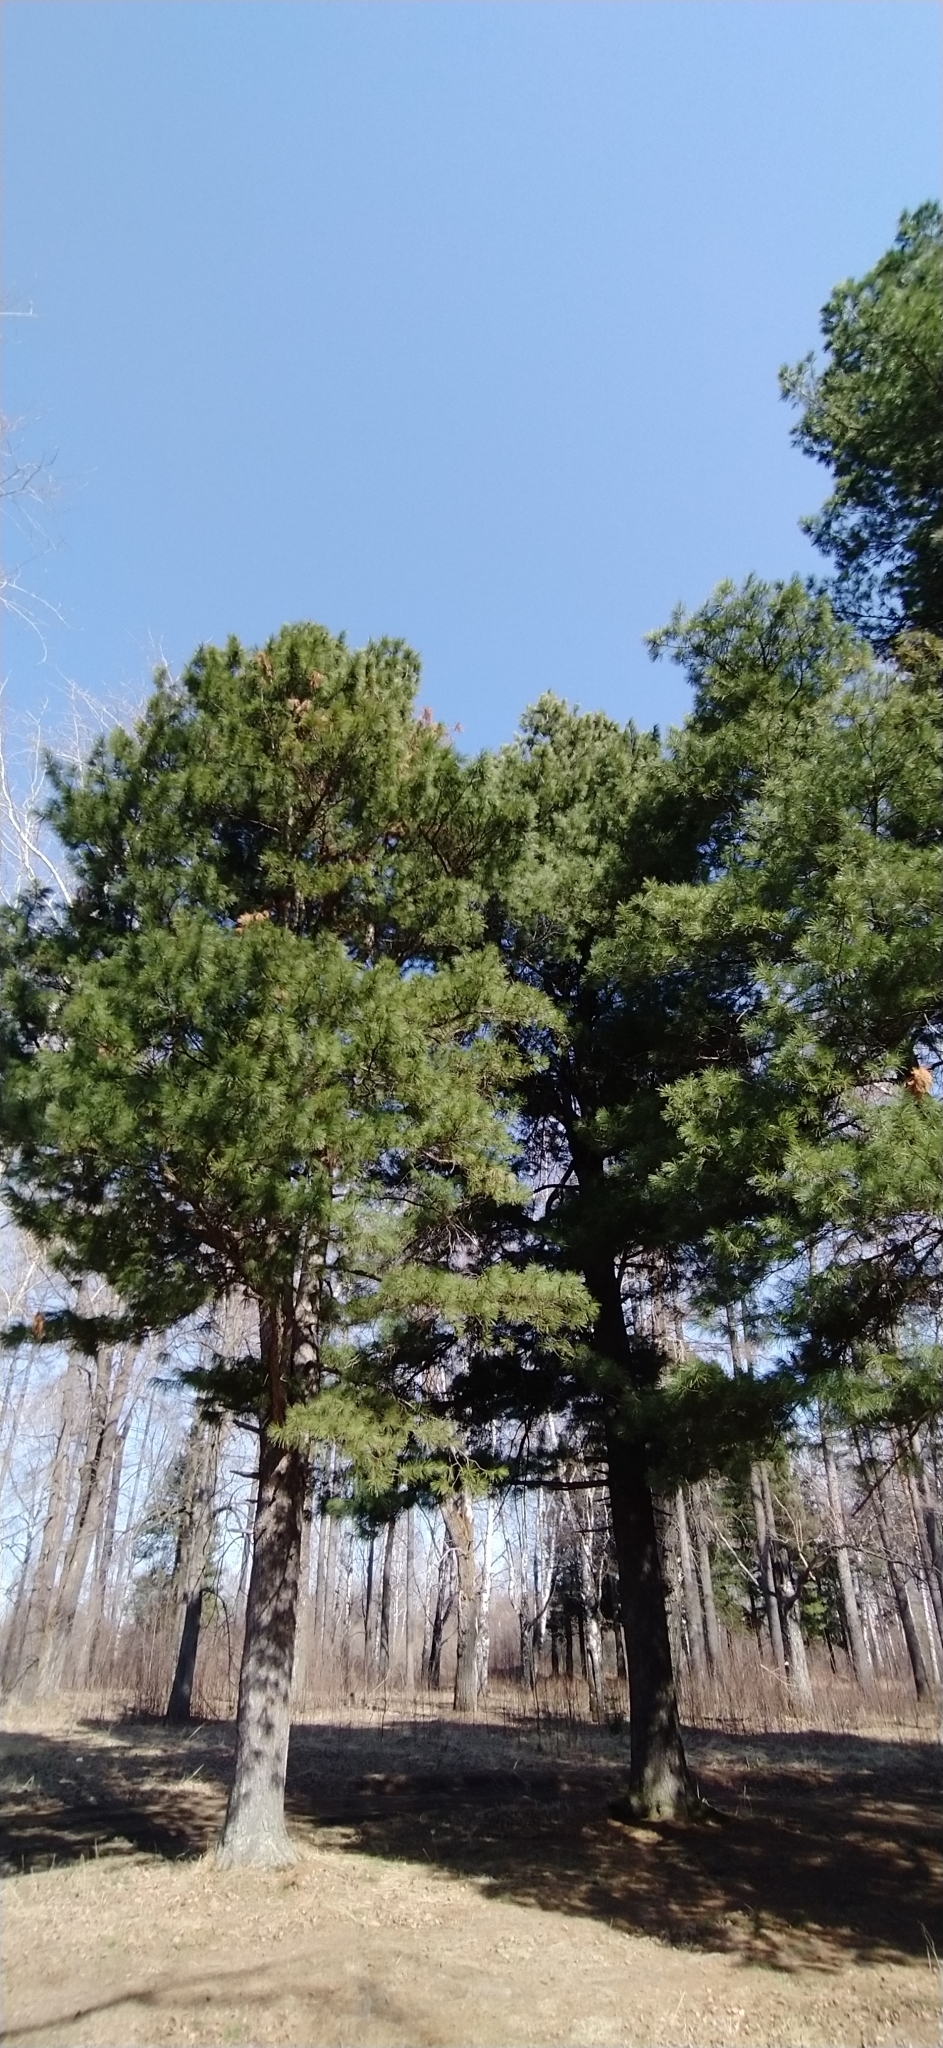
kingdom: Plantae
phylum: Tracheophyta
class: Pinopsida
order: Pinales
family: Pinaceae
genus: Pinus
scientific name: Pinus sibirica
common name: Siberian pine
